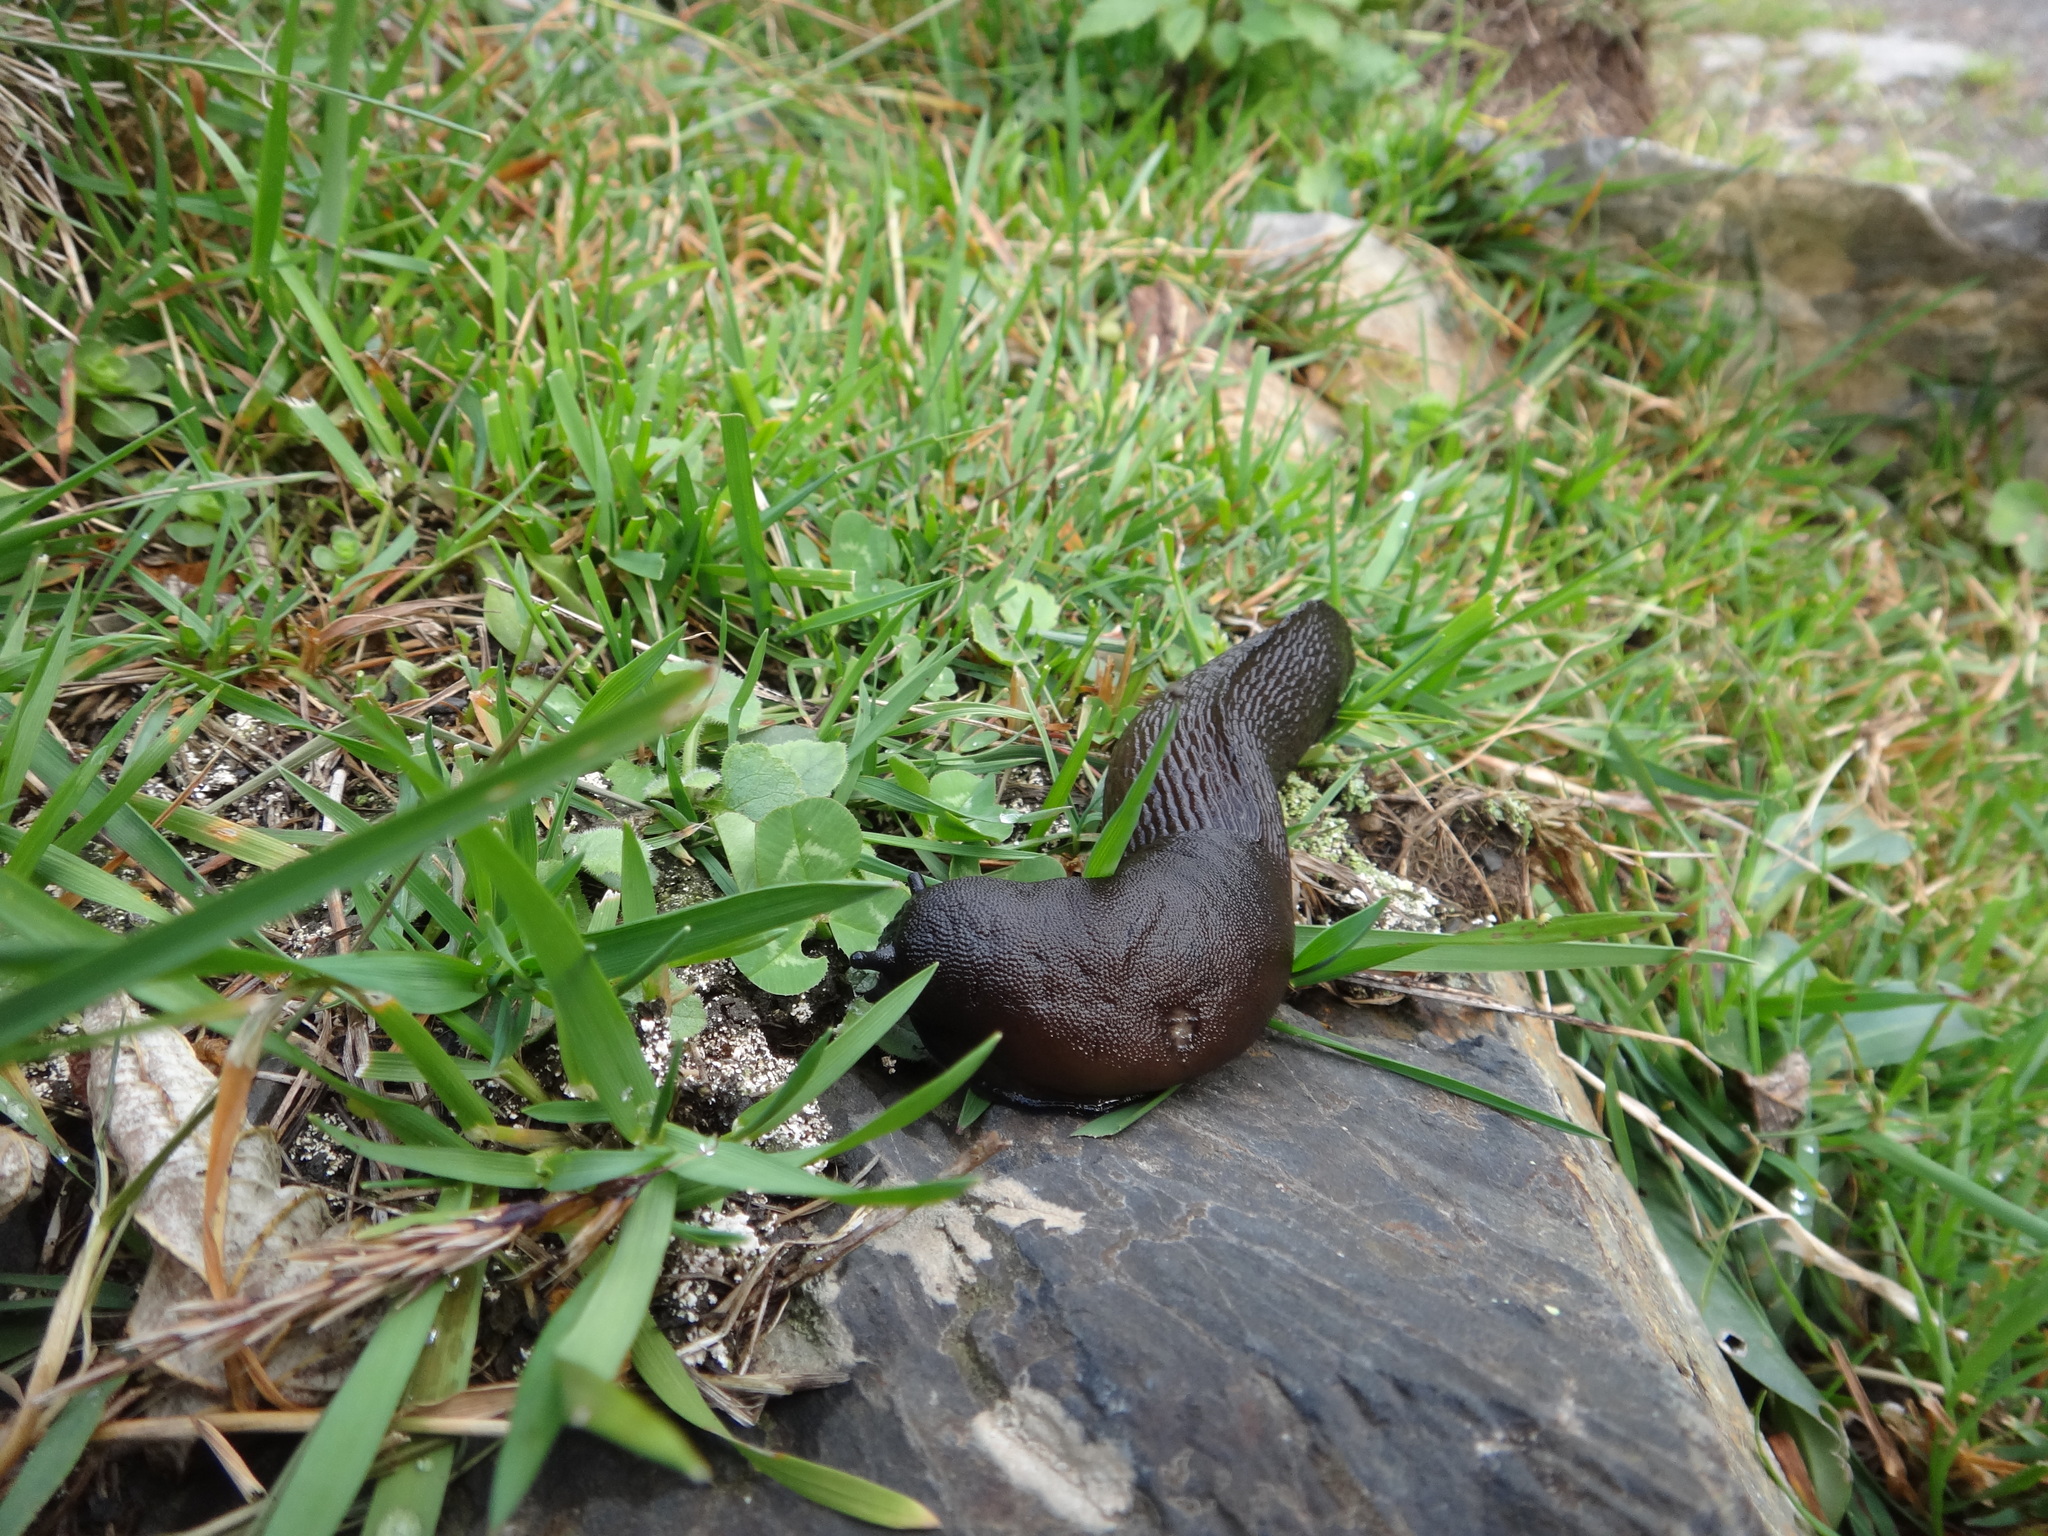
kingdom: Animalia
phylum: Mollusca
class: Gastropoda
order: Stylommatophora
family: Limacidae
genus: Eumilax
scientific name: Eumilax brandti
